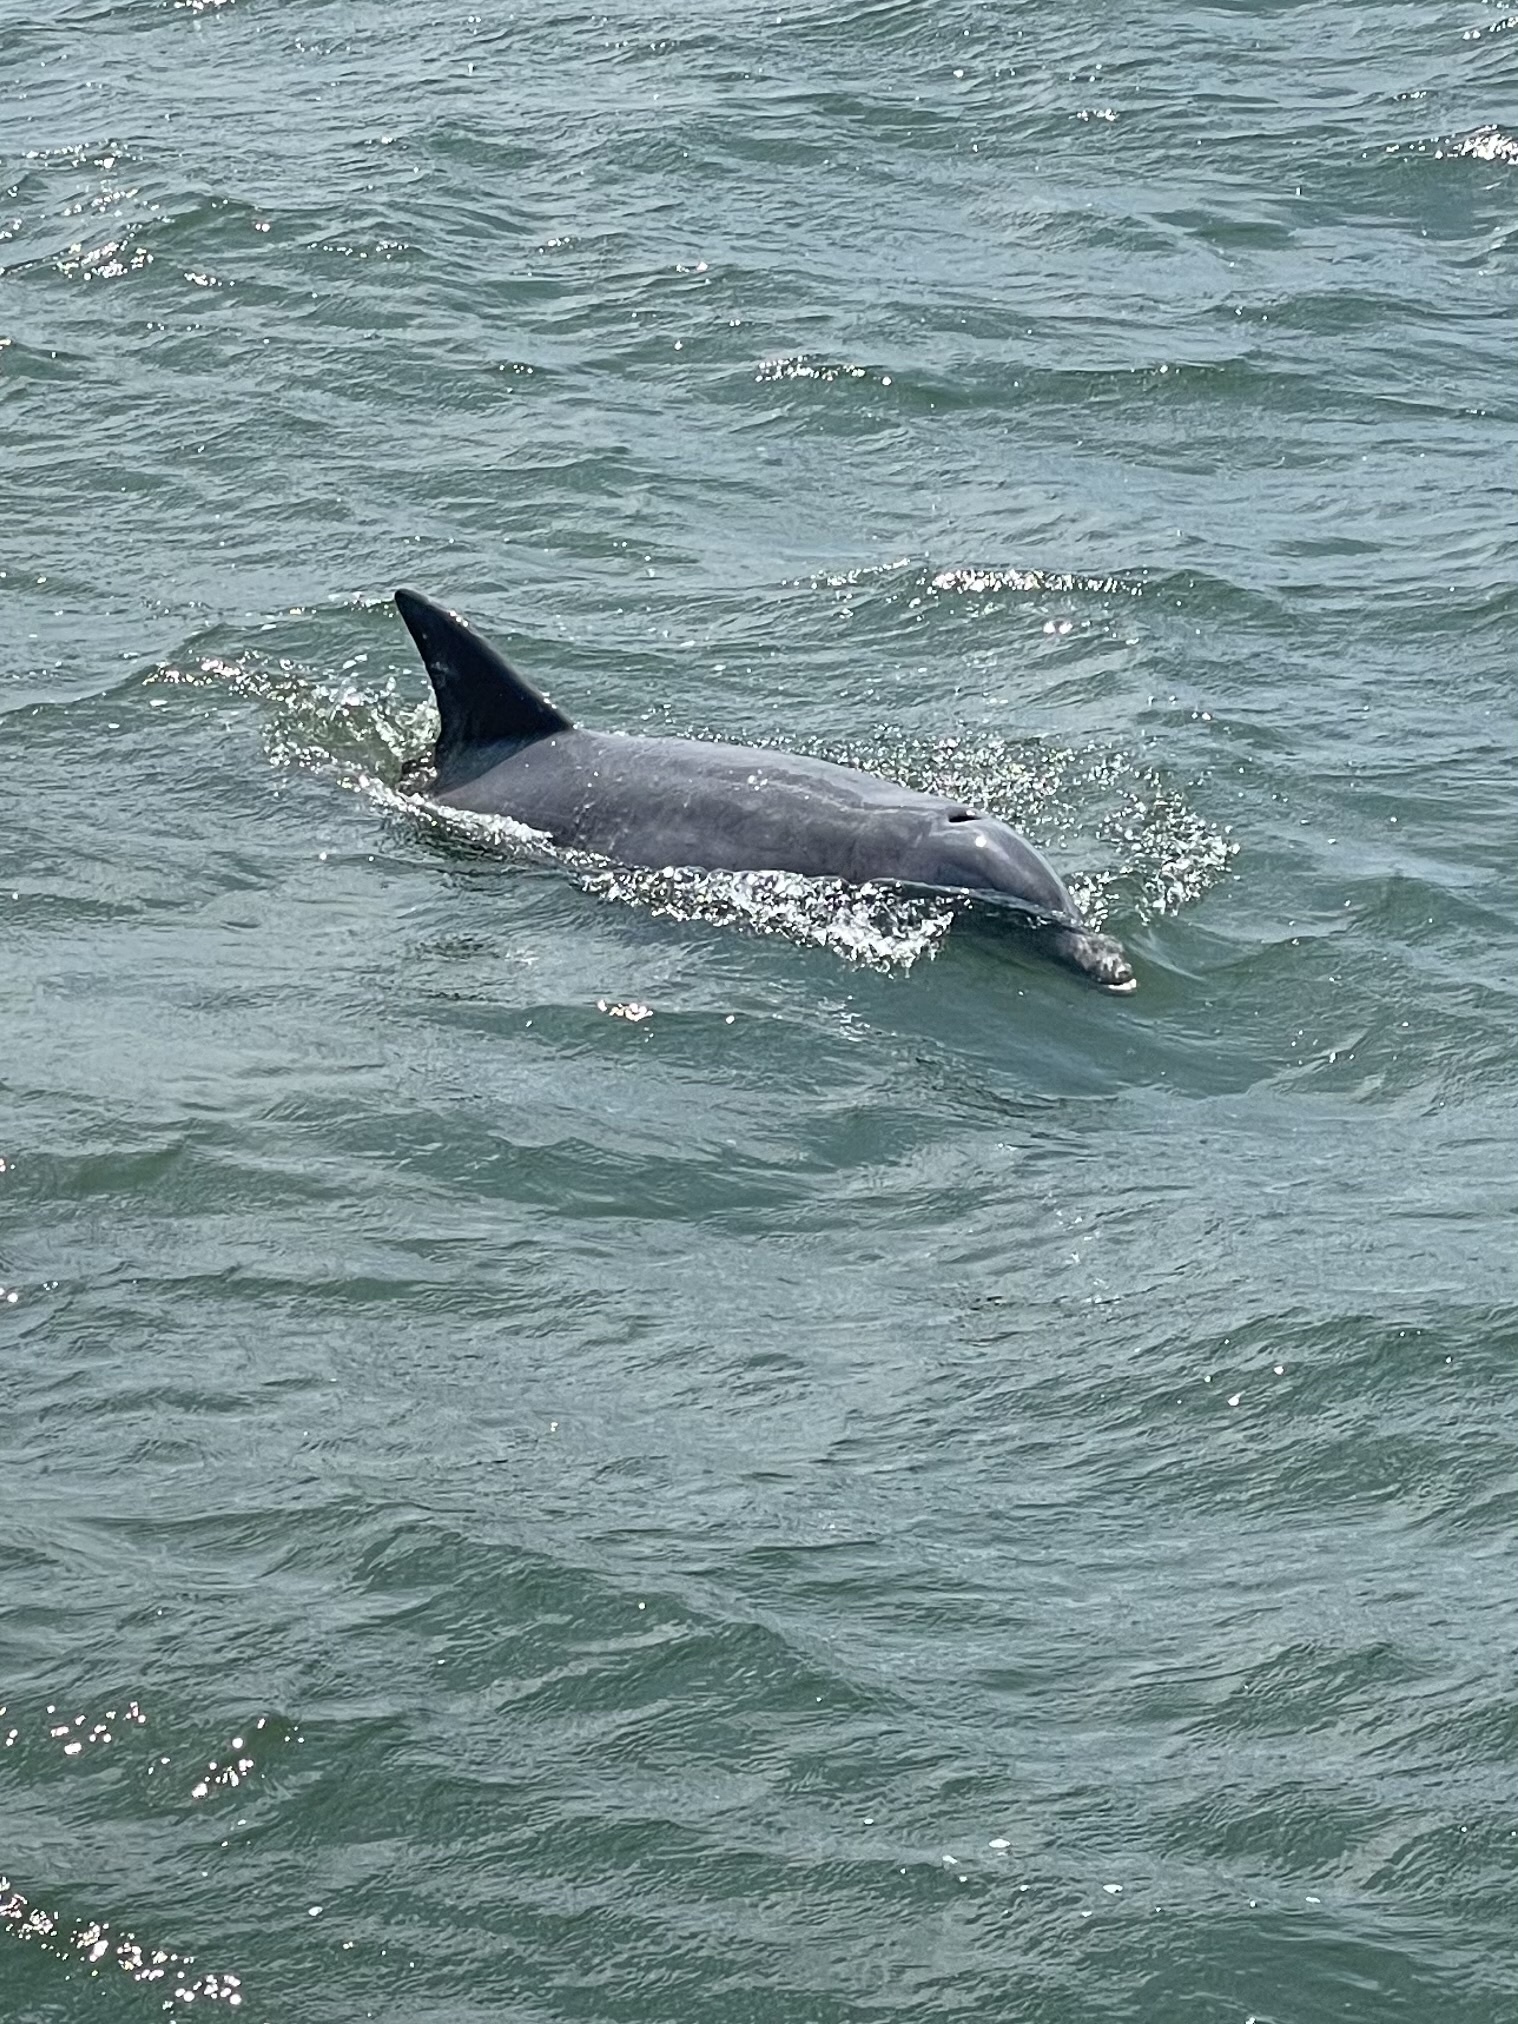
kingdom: Animalia
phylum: Chordata
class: Mammalia
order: Cetacea
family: Delphinidae
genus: Tursiops
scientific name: Tursiops truncatus
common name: Bottlenose dolphin
